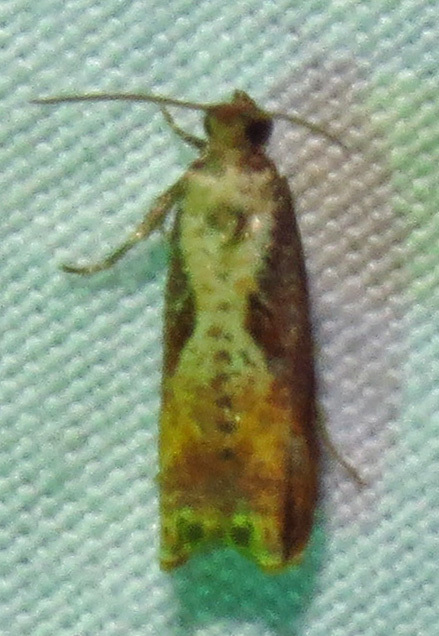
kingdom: Animalia
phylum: Arthropoda
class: Insecta
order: Lepidoptera
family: Tortricidae
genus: Episimus
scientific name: Episimus tyrius
